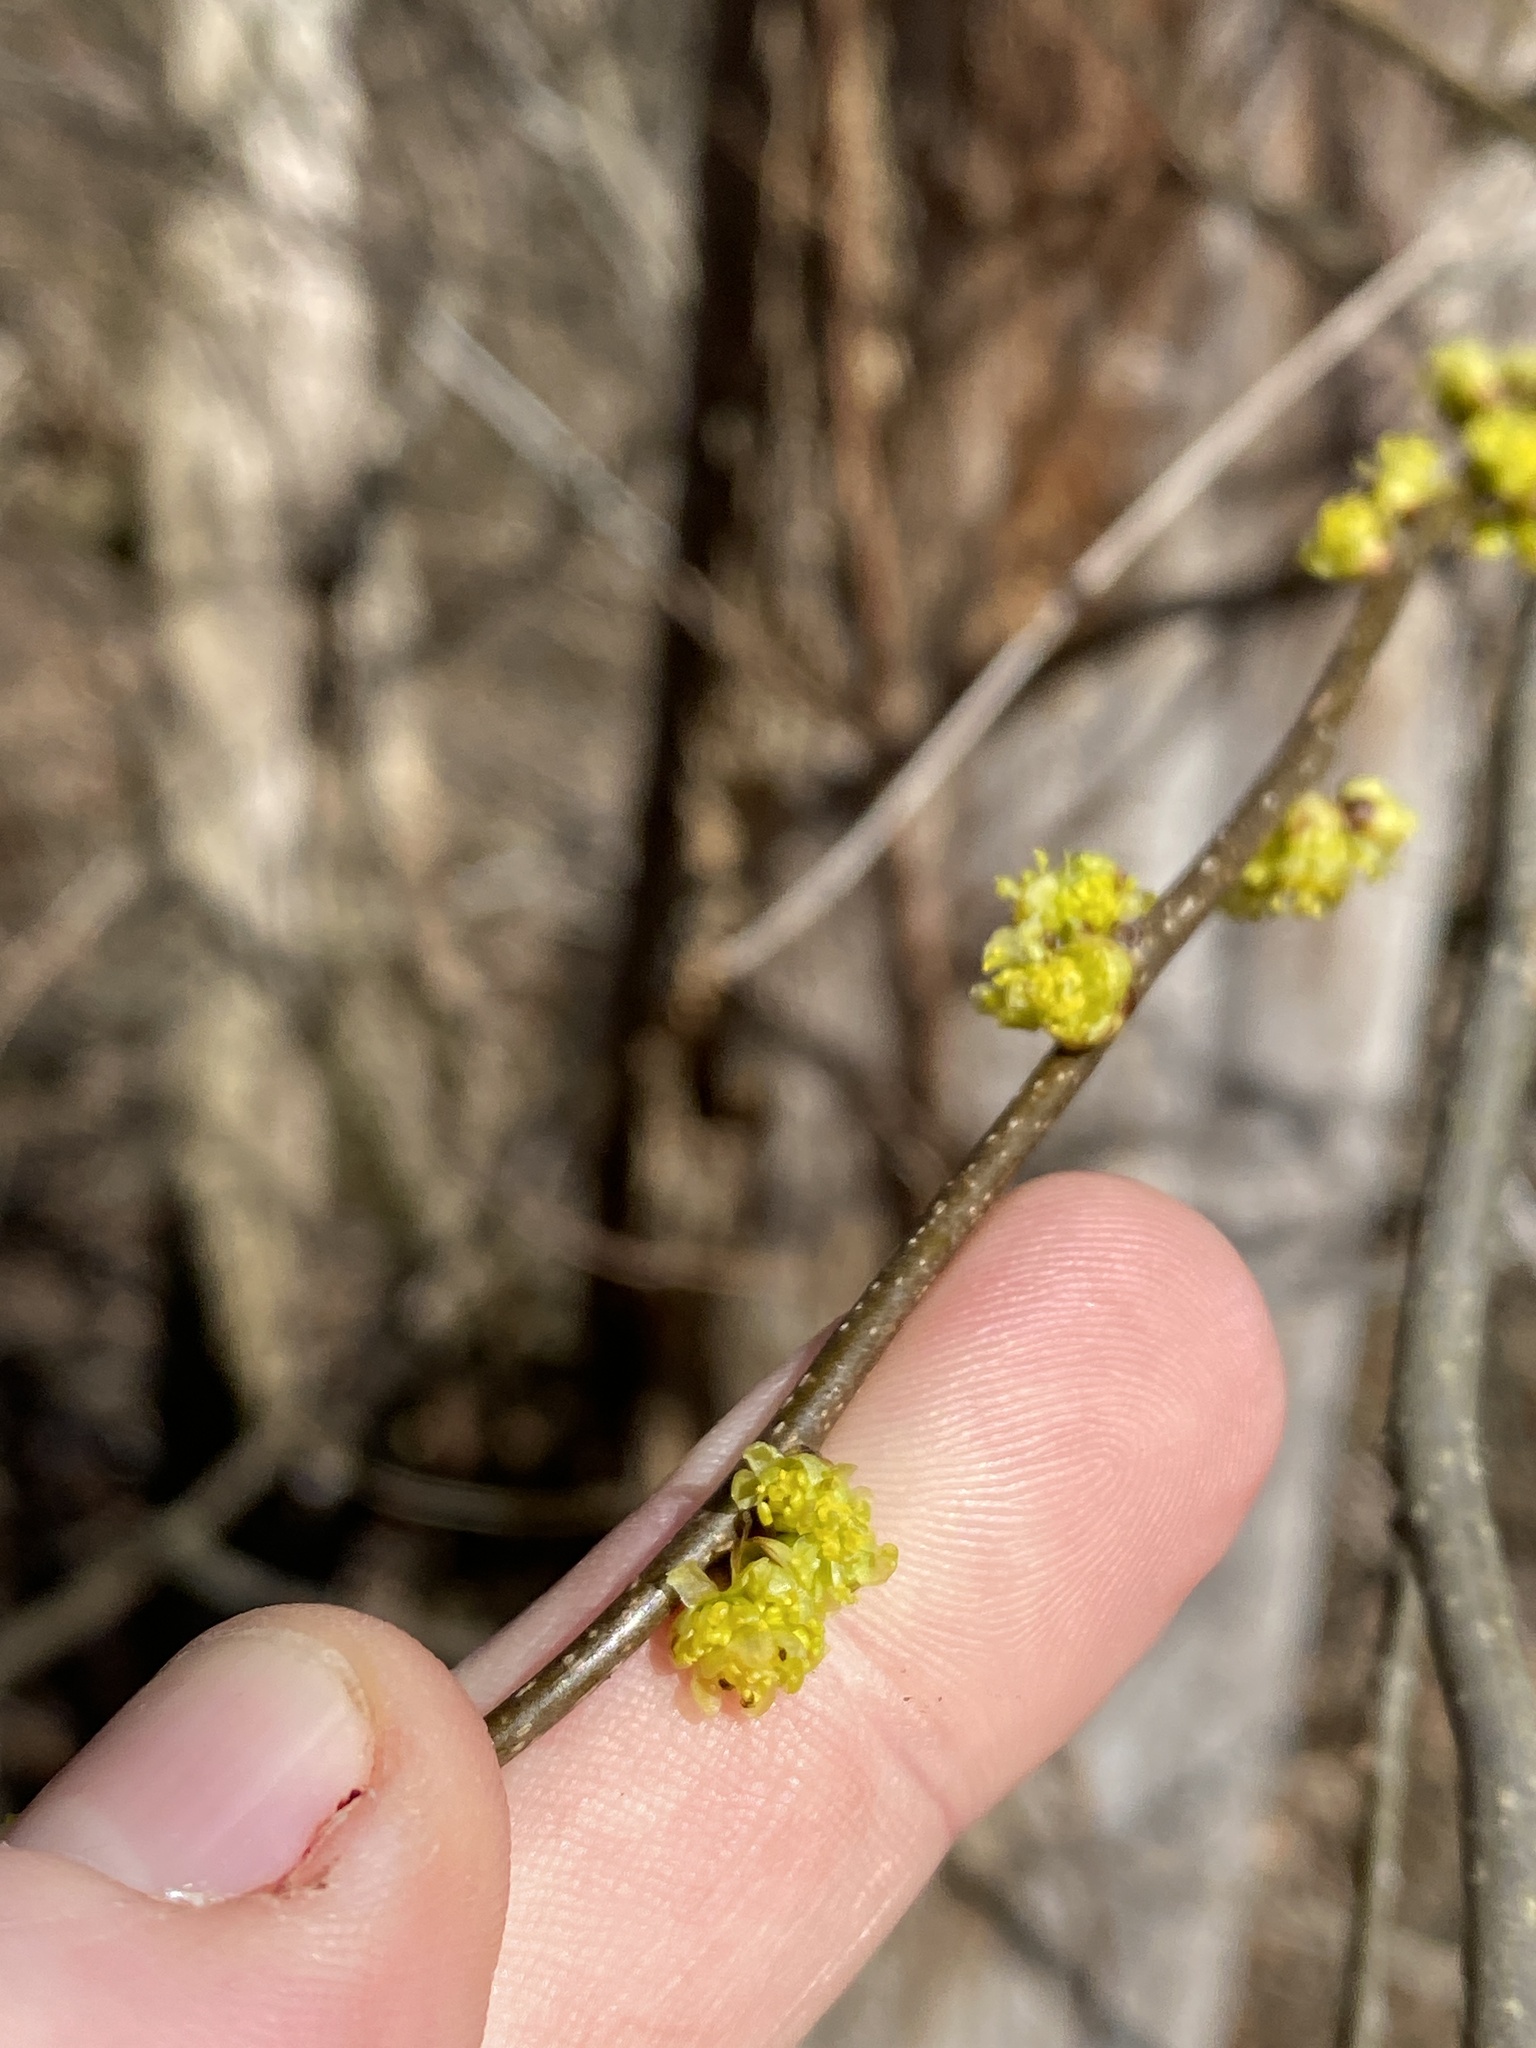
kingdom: Plantae
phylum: Tracheophyta
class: Magnoliopsida
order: Laurales
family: Lauraceae
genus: Lindera
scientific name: Lindera benzoin
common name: Spicebush
